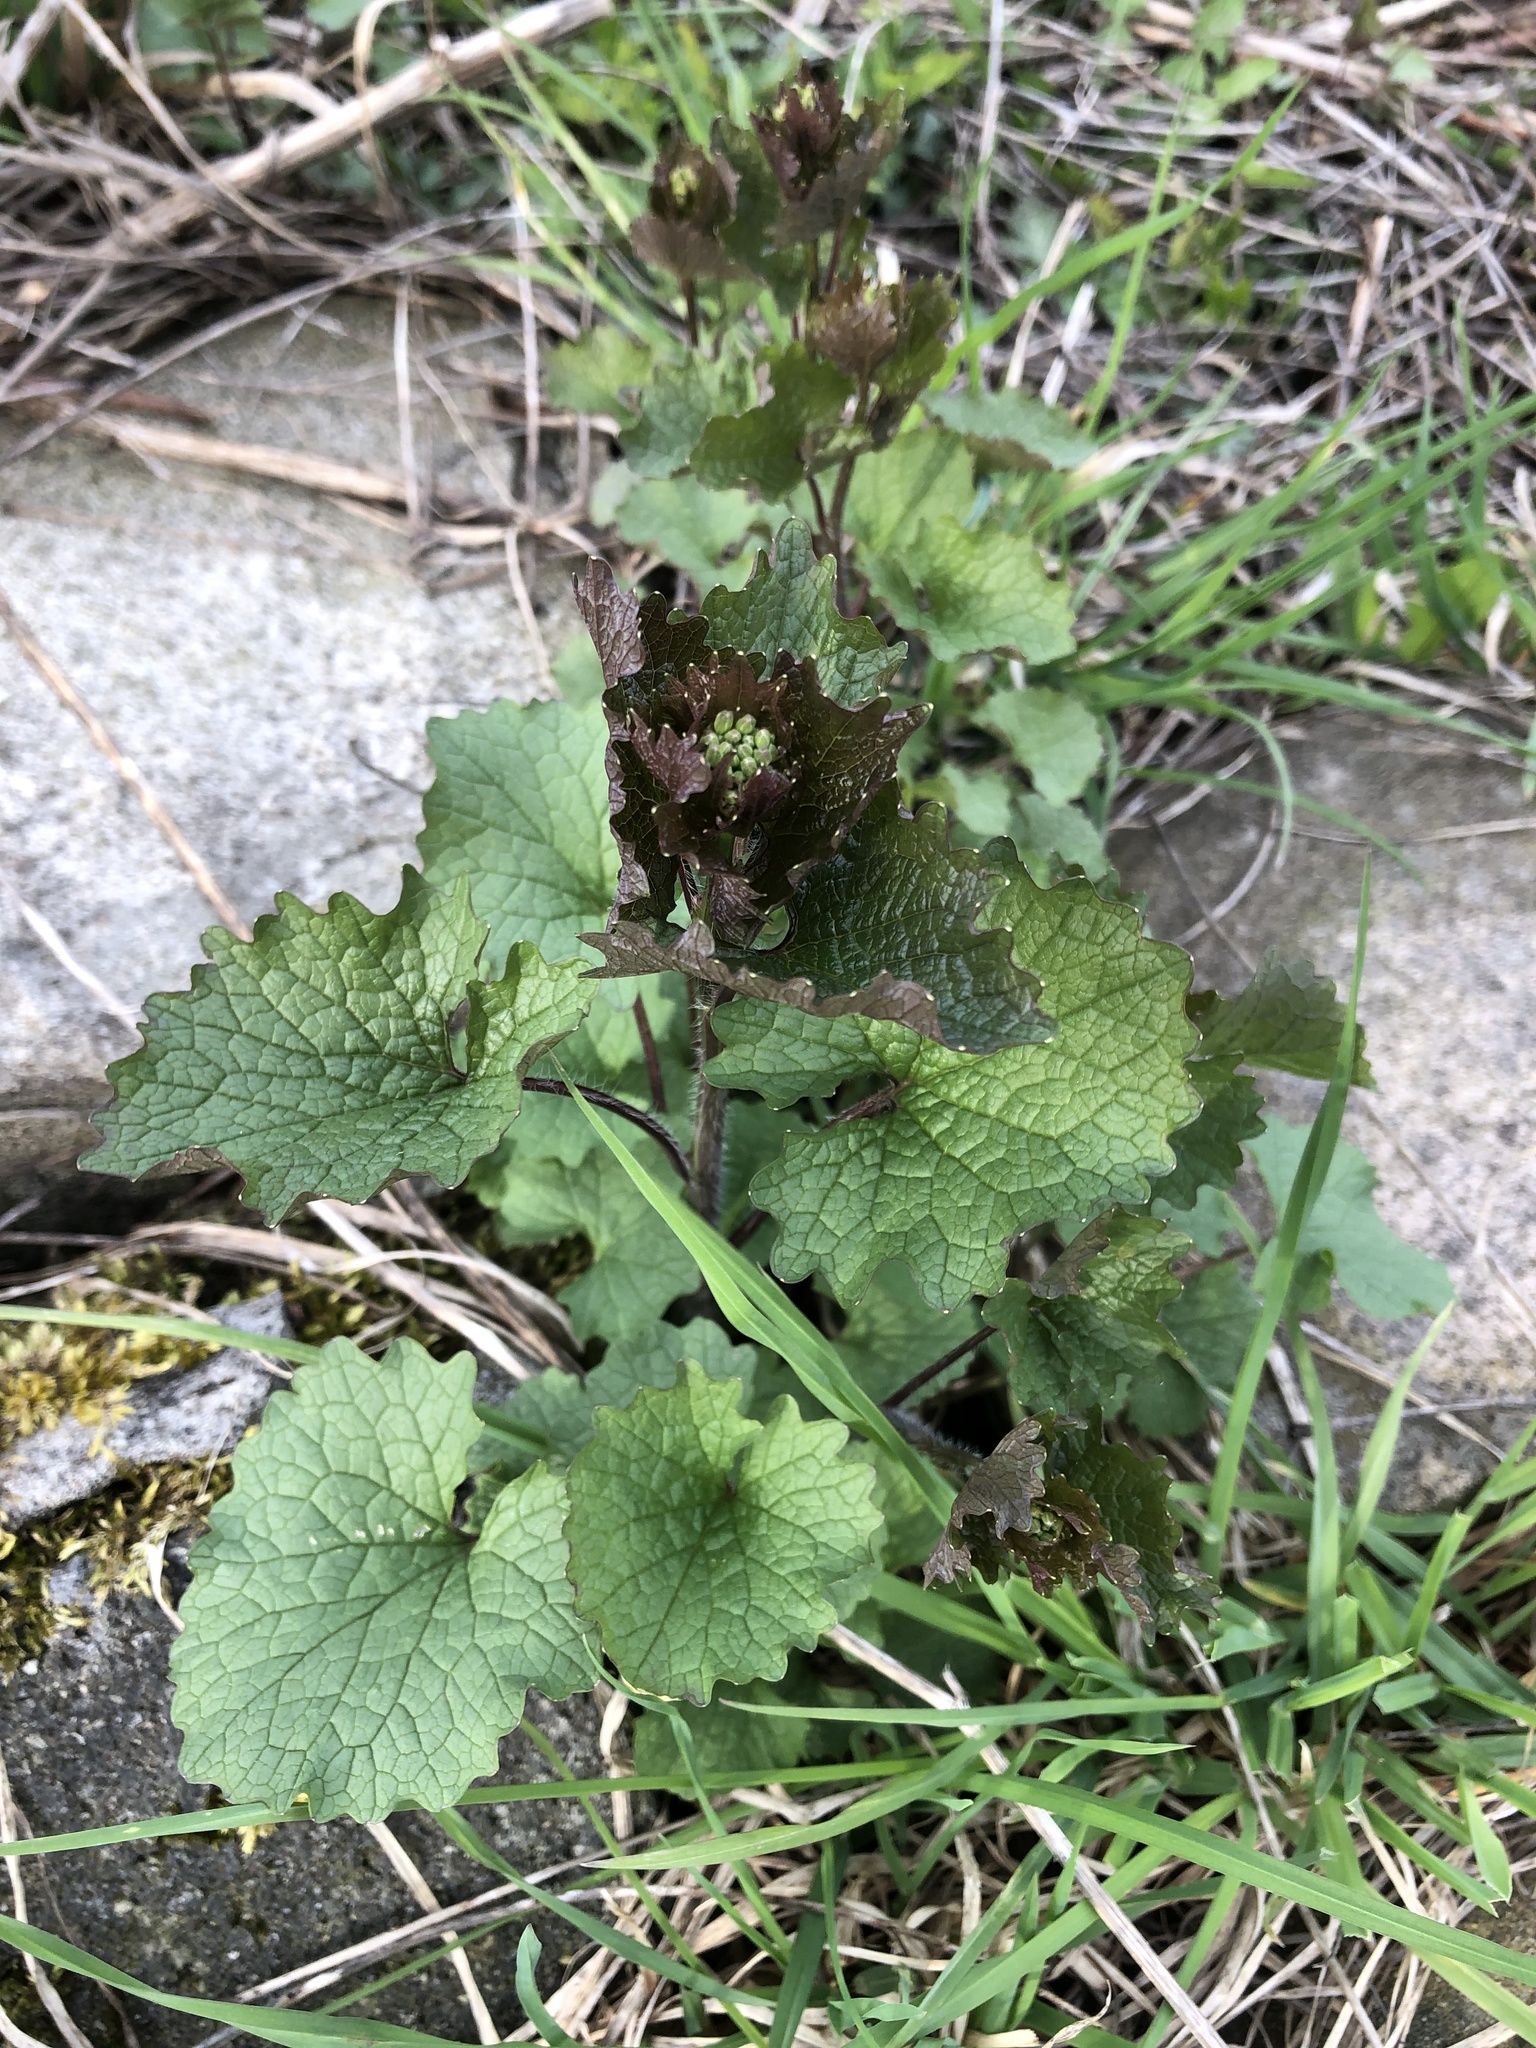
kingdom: Plantae
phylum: Tracheophyta
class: Magnoliopsida
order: Brassicales
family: Brassicaceae
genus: Alliaria
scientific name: Alliaria petiolata
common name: Garlic mustard
